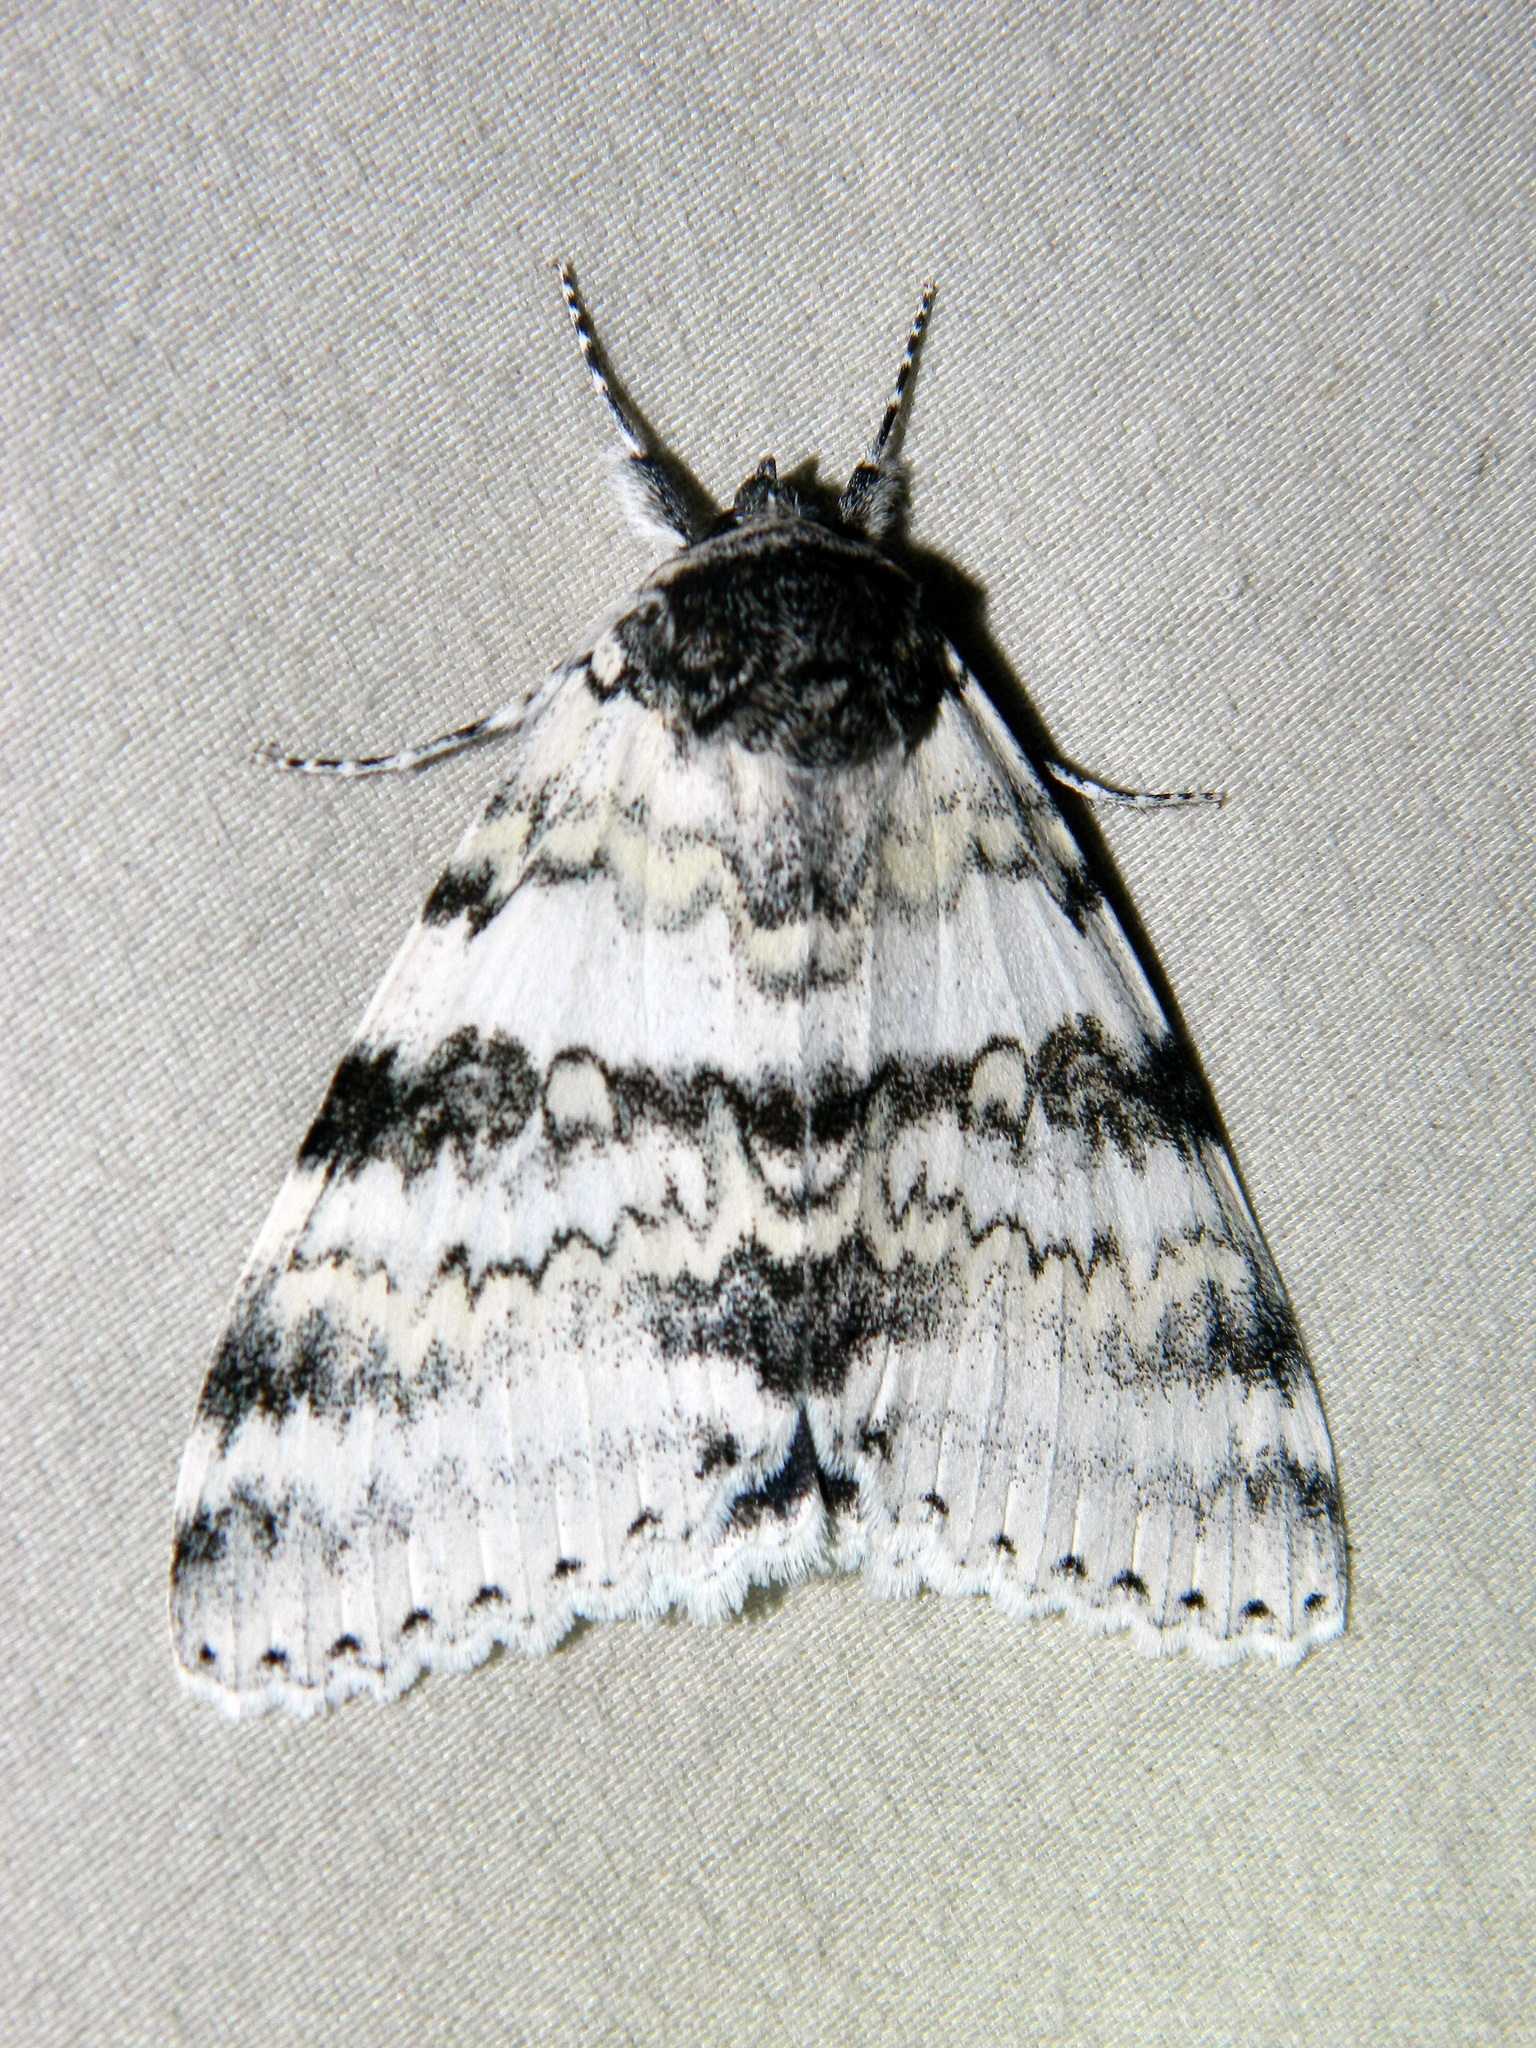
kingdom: Animalia
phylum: Arthropoda
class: Insecta
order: Lepidoptera
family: Erebidae
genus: Catocala
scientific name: Catocala relicta
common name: White underwing
